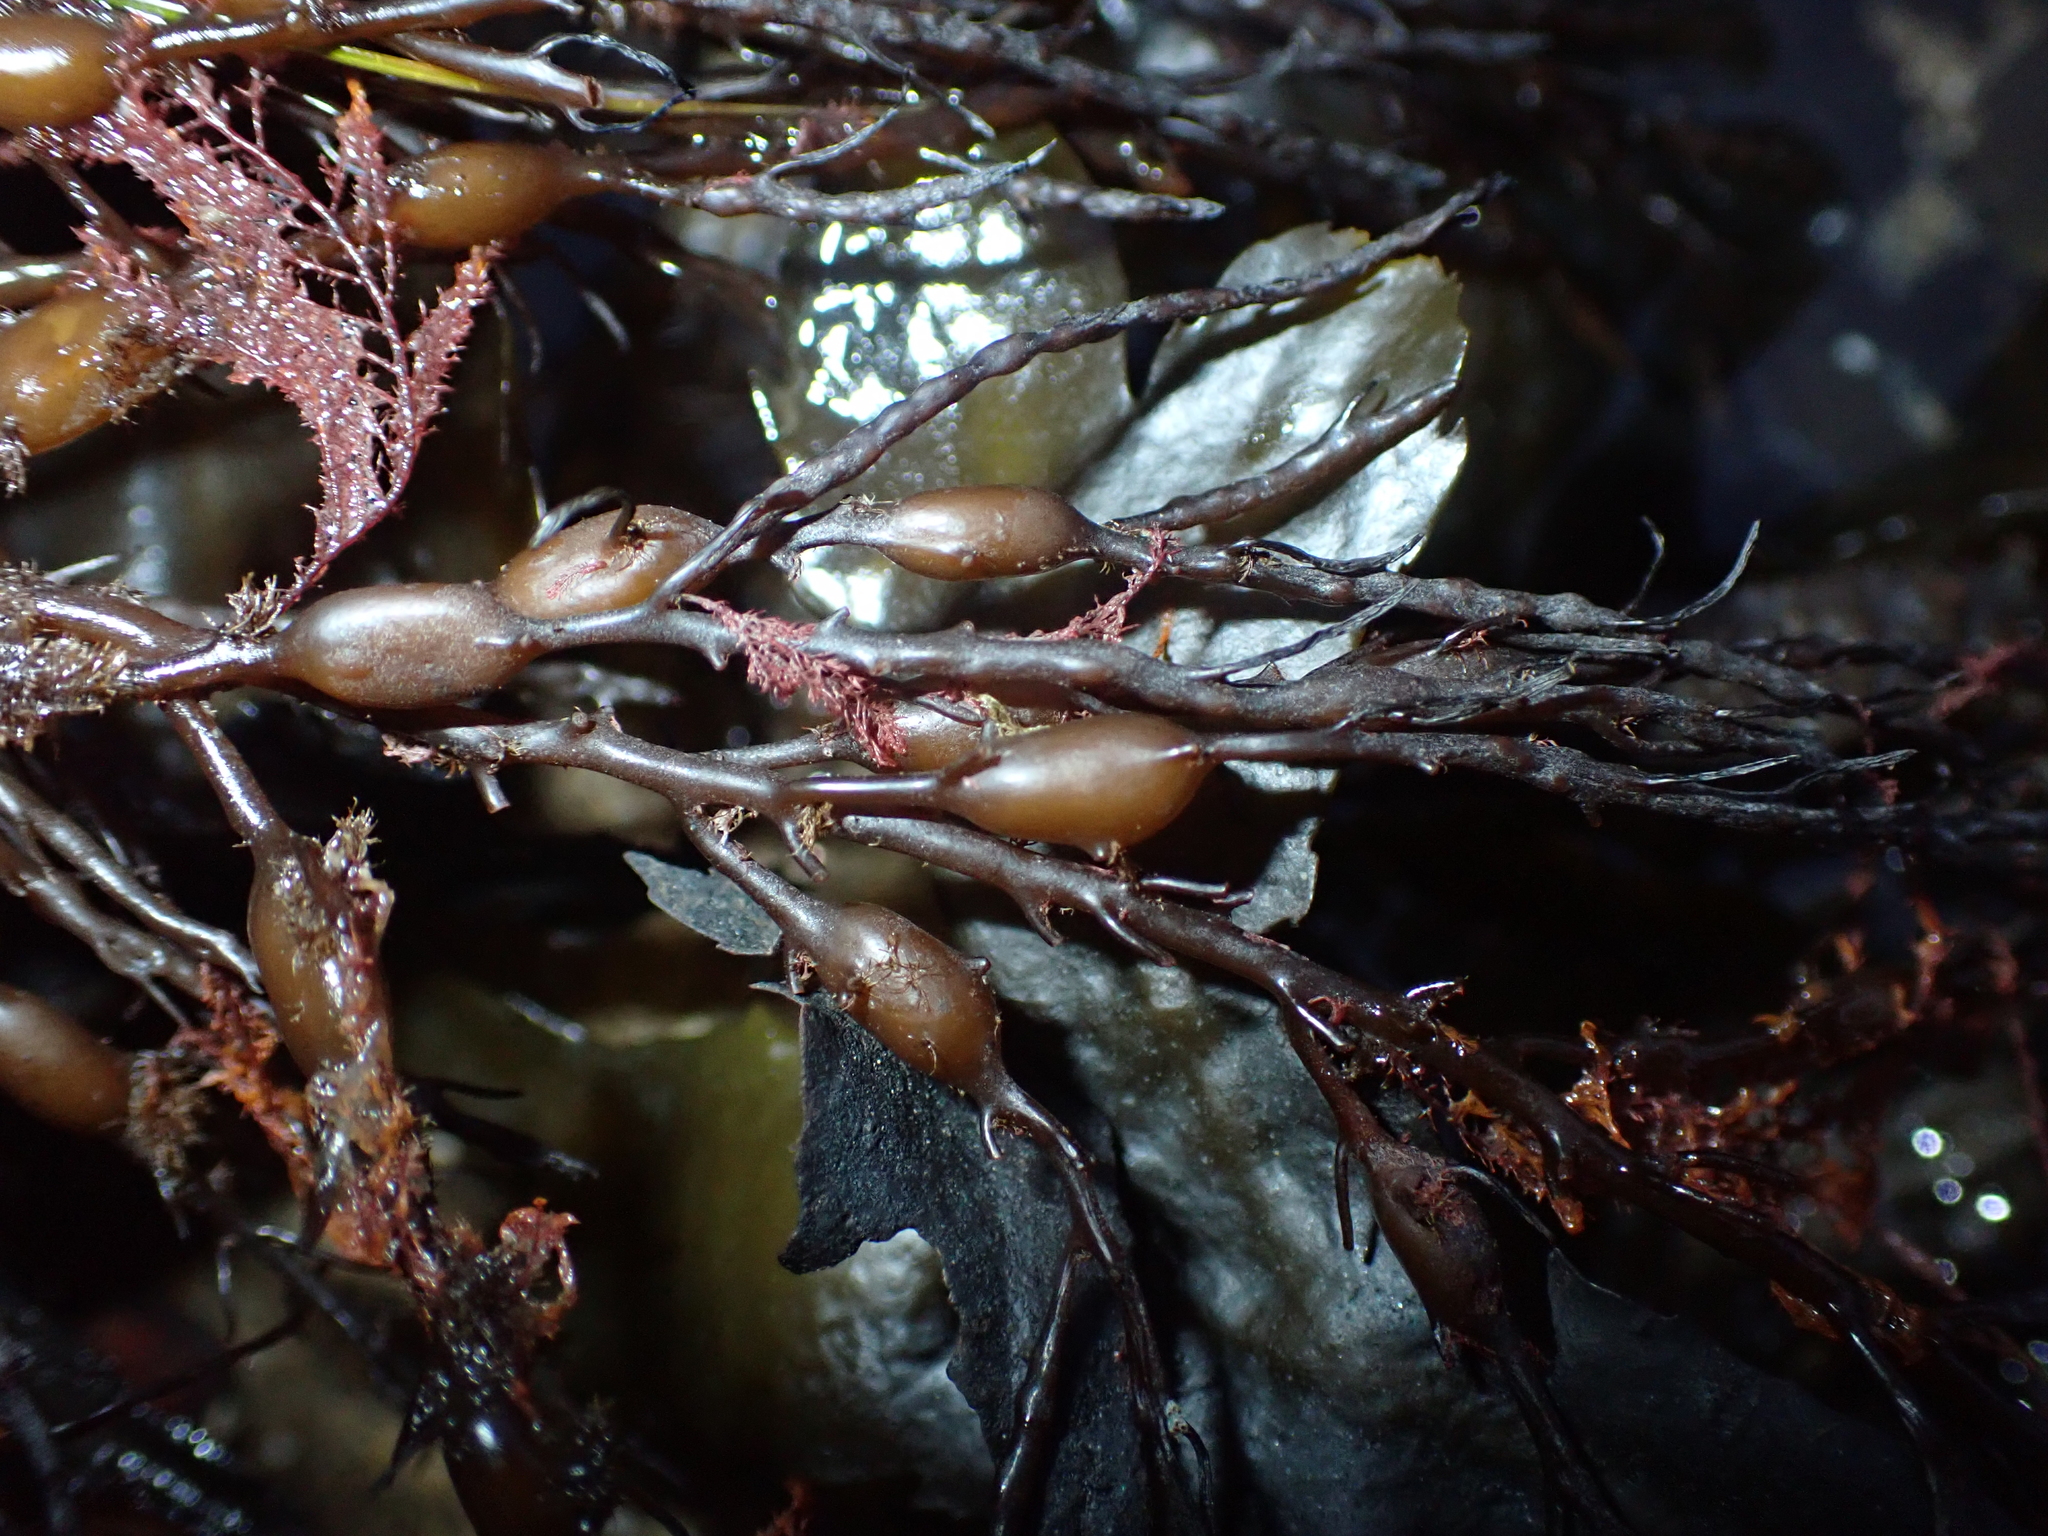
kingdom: Chromista
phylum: Ochrophyta
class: Phaeophyceae
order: Fucales
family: Fucaceae
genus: Ascophyllum
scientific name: Ascophyllum nodosum
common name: Knotted wrack
